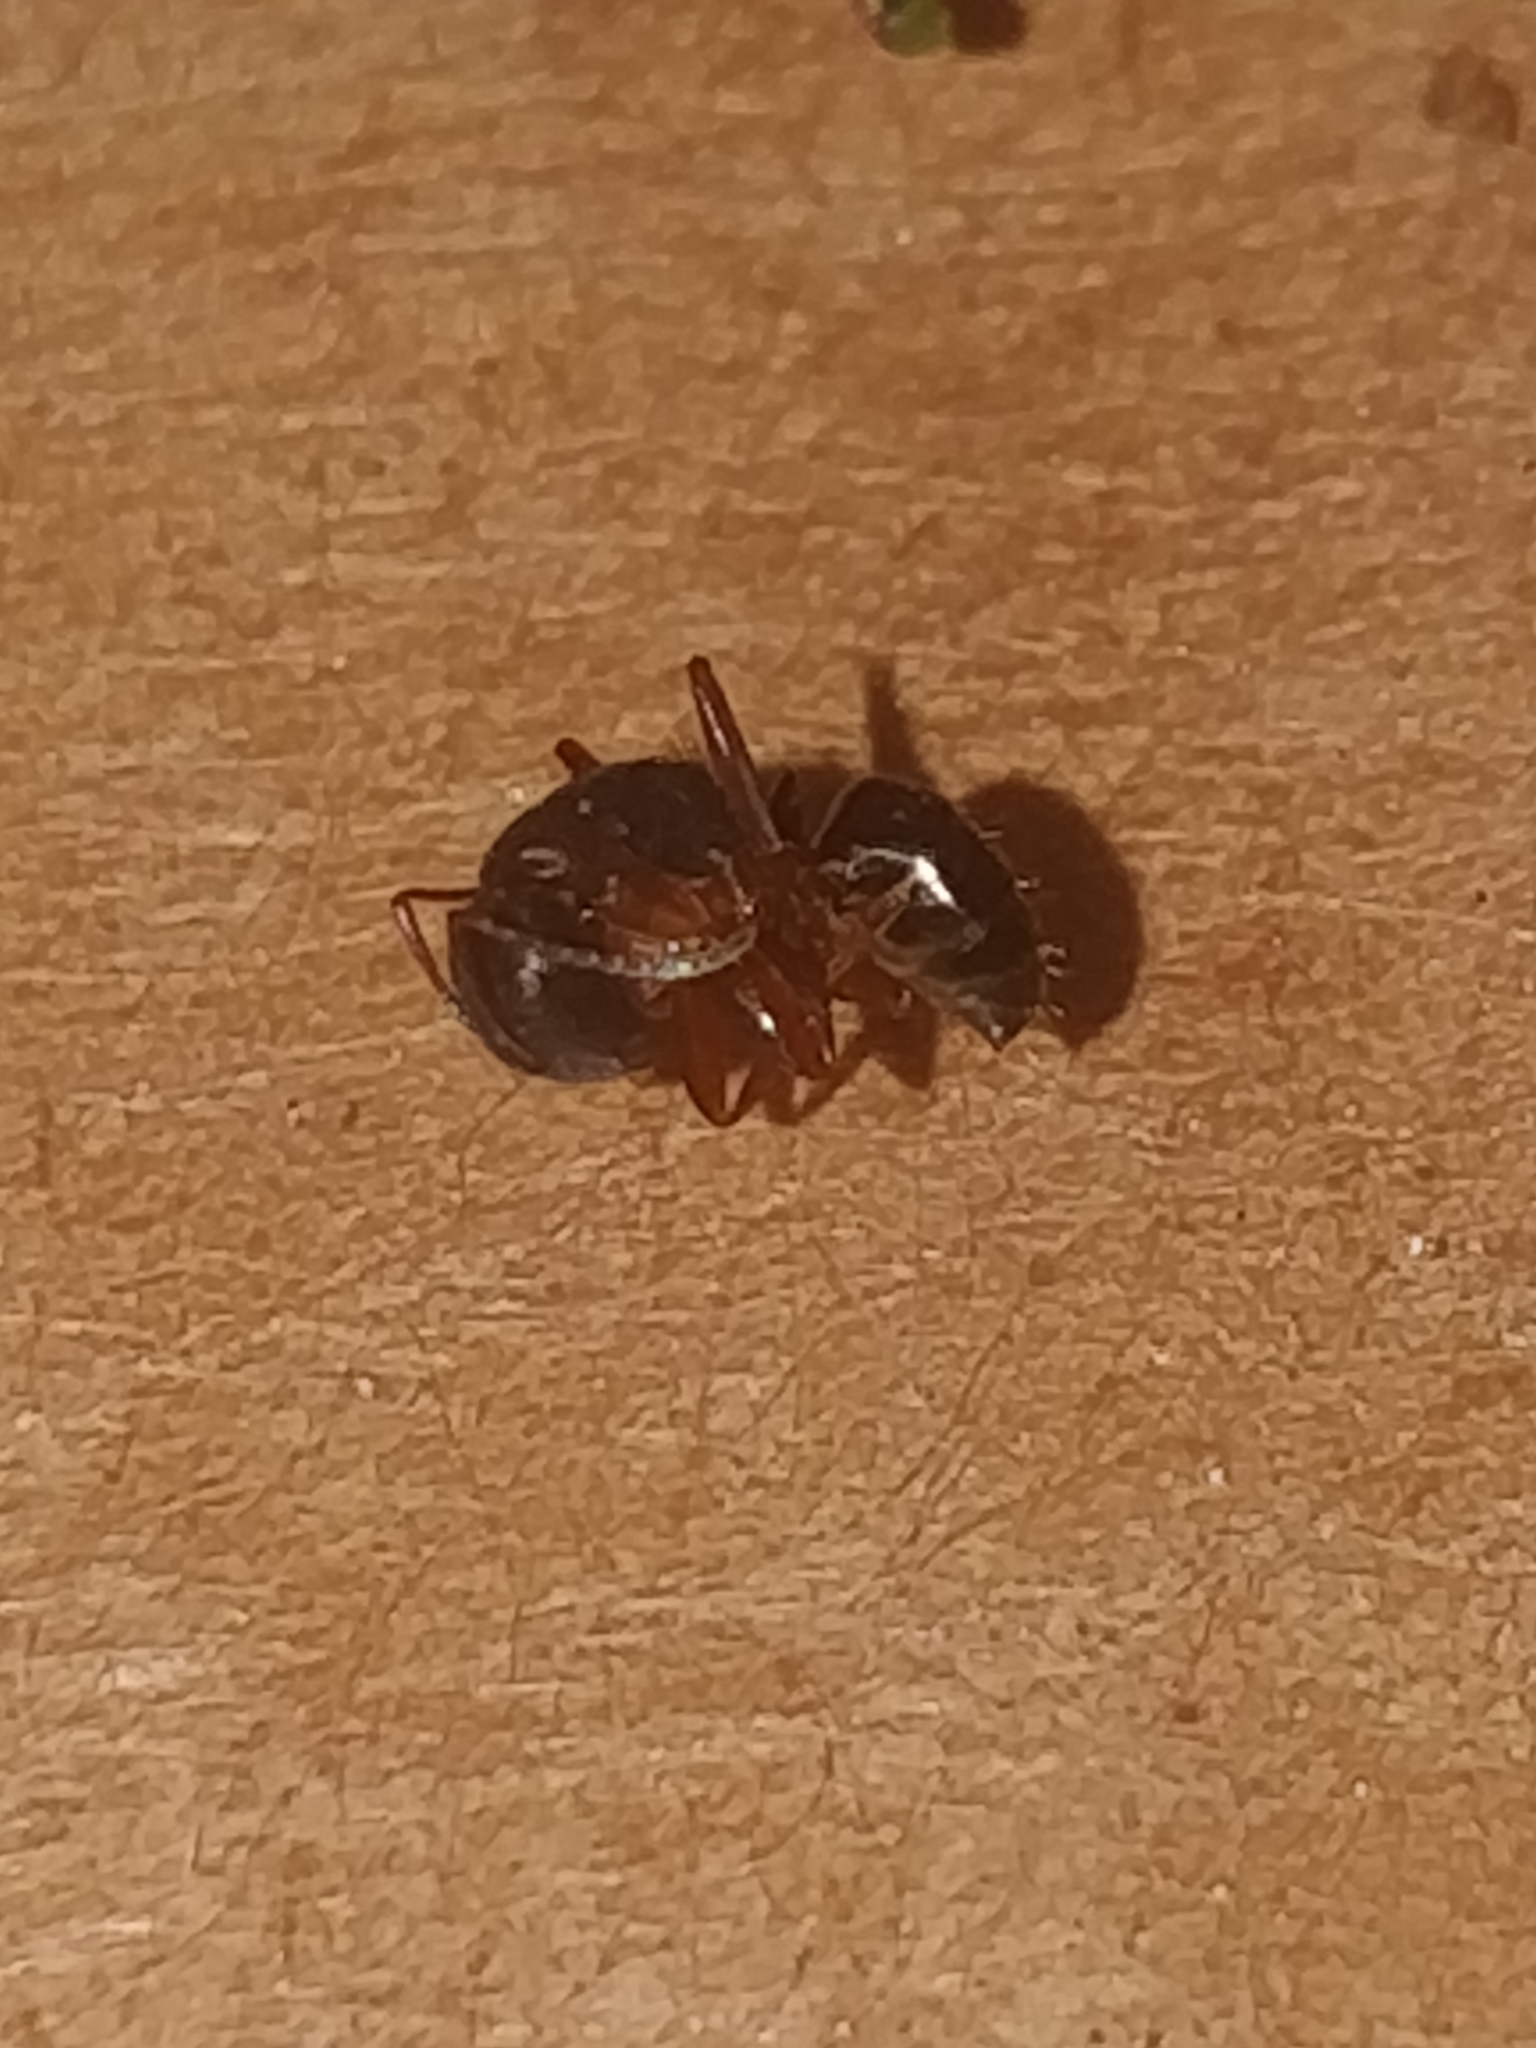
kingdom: Animalia
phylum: Arthropoda
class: Insecta
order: Hymenoptera
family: Formicidae
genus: Camponotus
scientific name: Camponotus nearcticus
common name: Smaller carpenter ant
